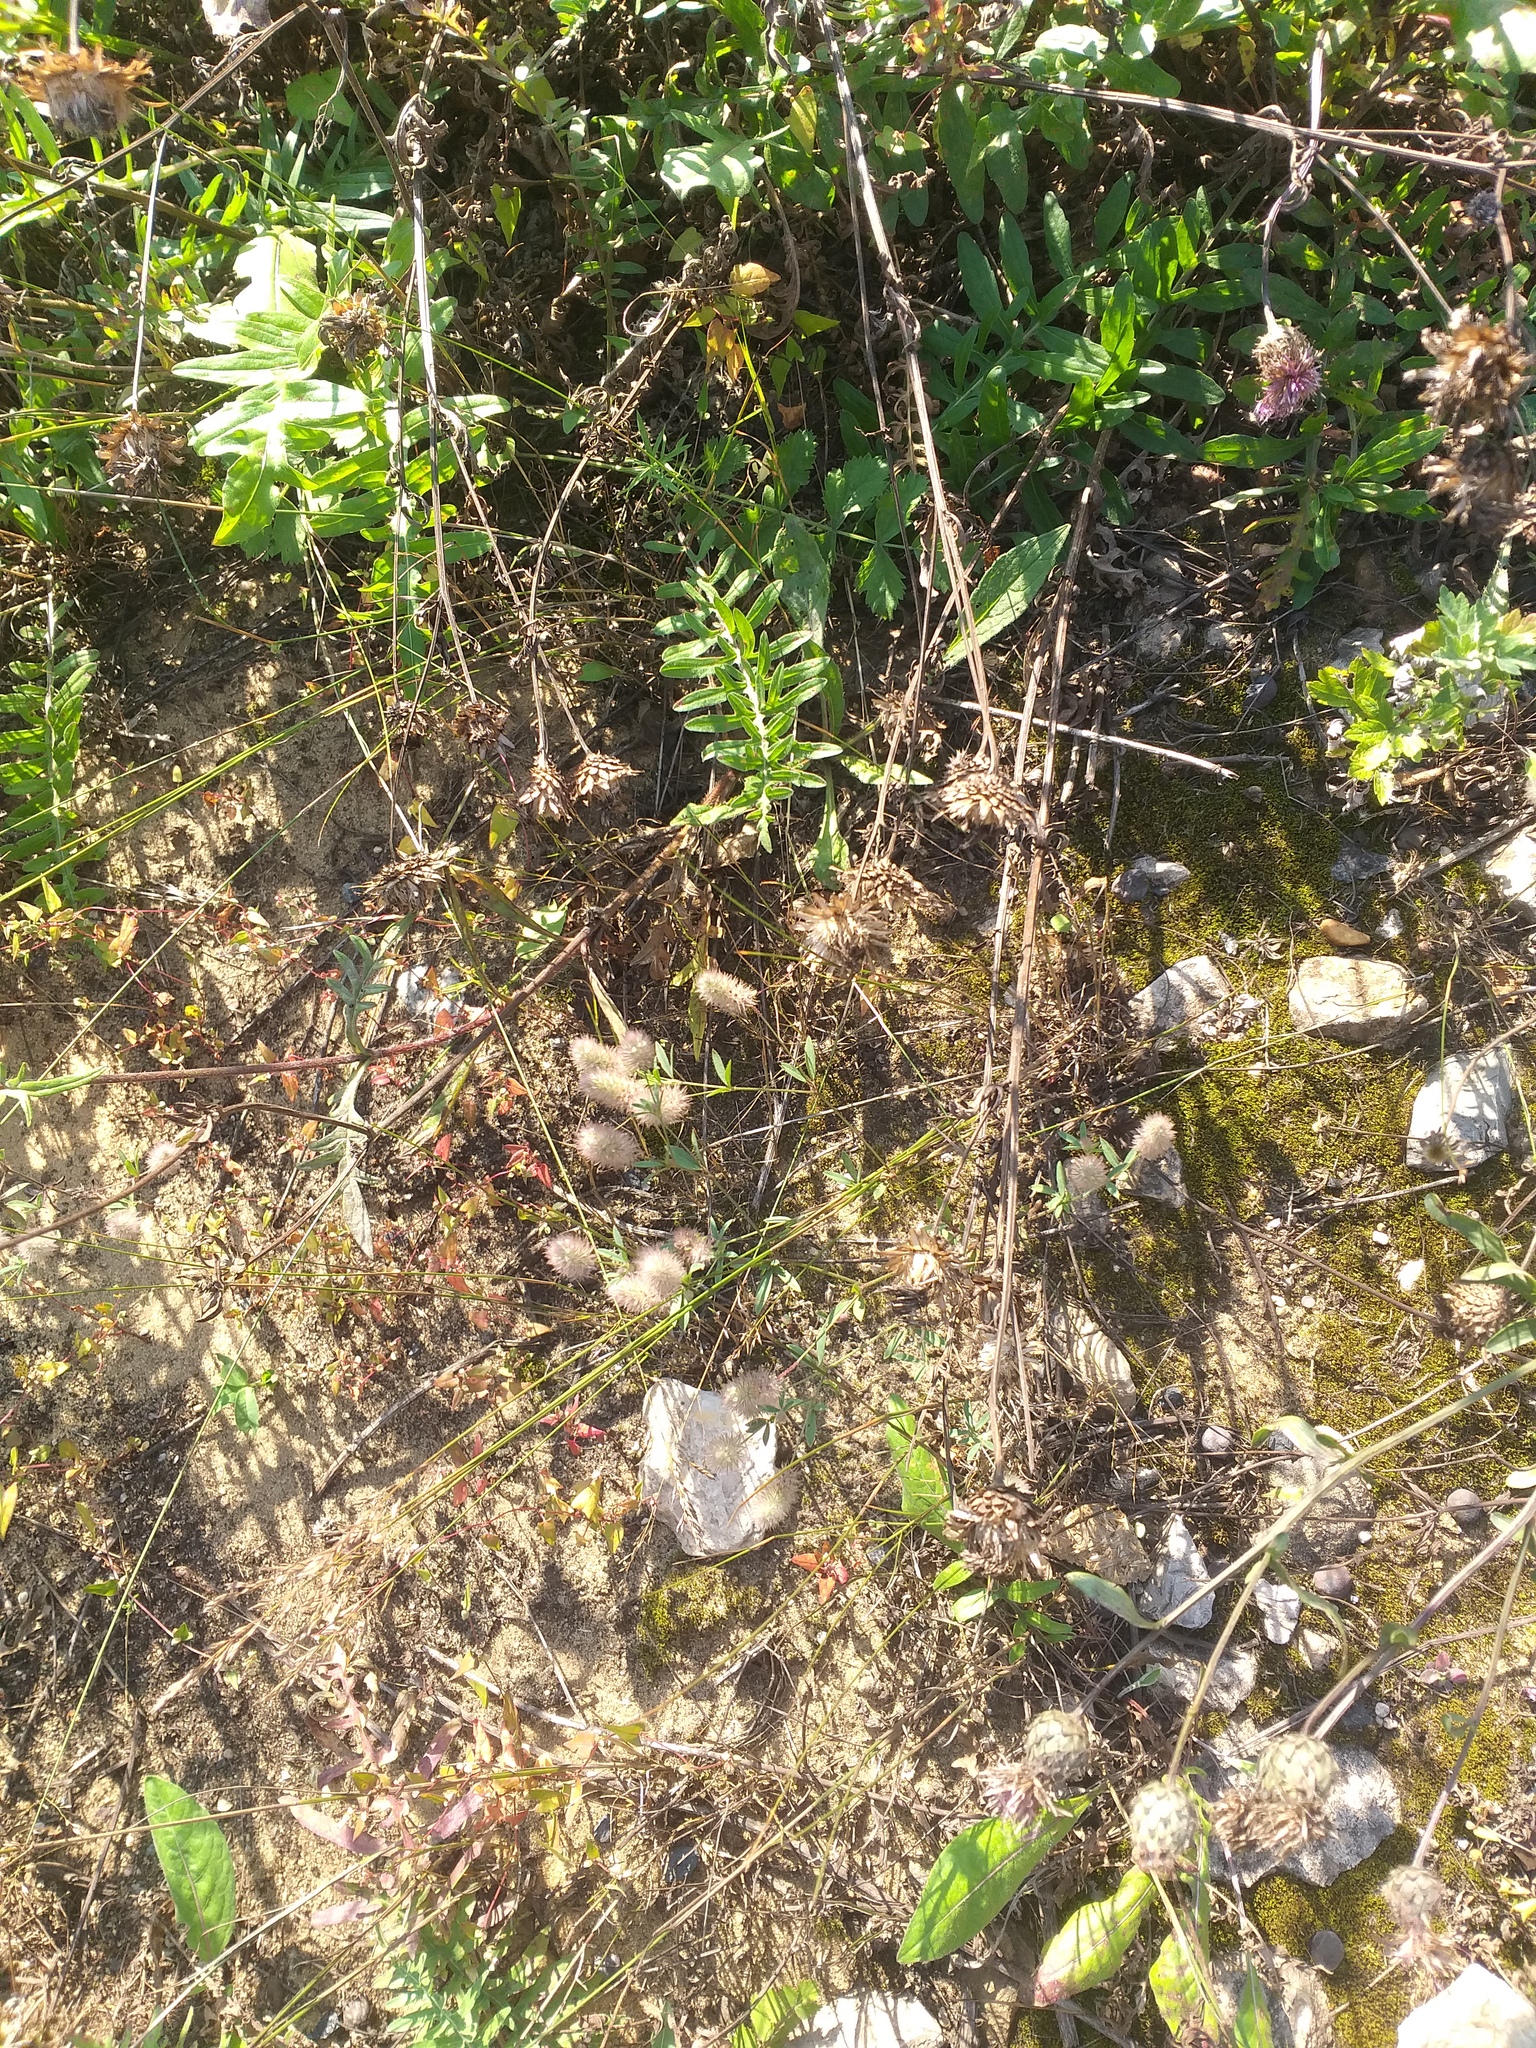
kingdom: Plantae
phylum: Tracheophyta
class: Magnoliopsida
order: Fabales
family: Fabaceae
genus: Trifolium
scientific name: Trifolium arvense
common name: Hare's-foot clover
